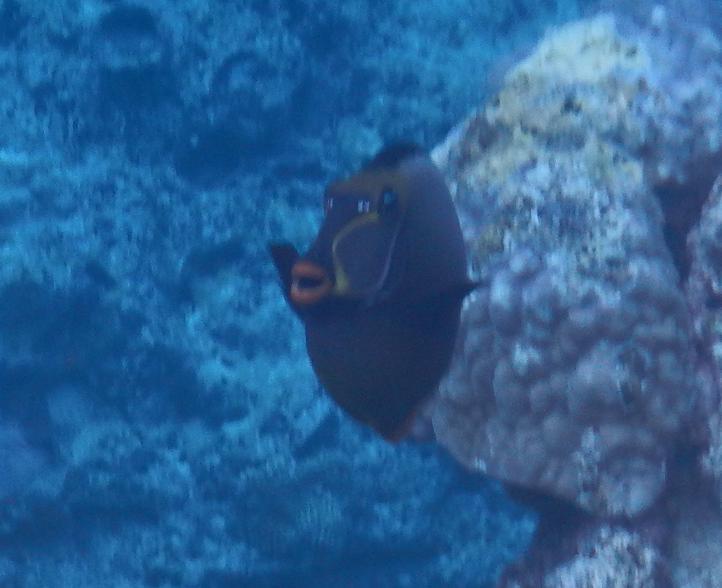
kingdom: Animalia
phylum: Chordata
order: Perciformes
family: Acanthuridae
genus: Naso
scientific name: Naso lituratus
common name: Orangespine unicornfish
